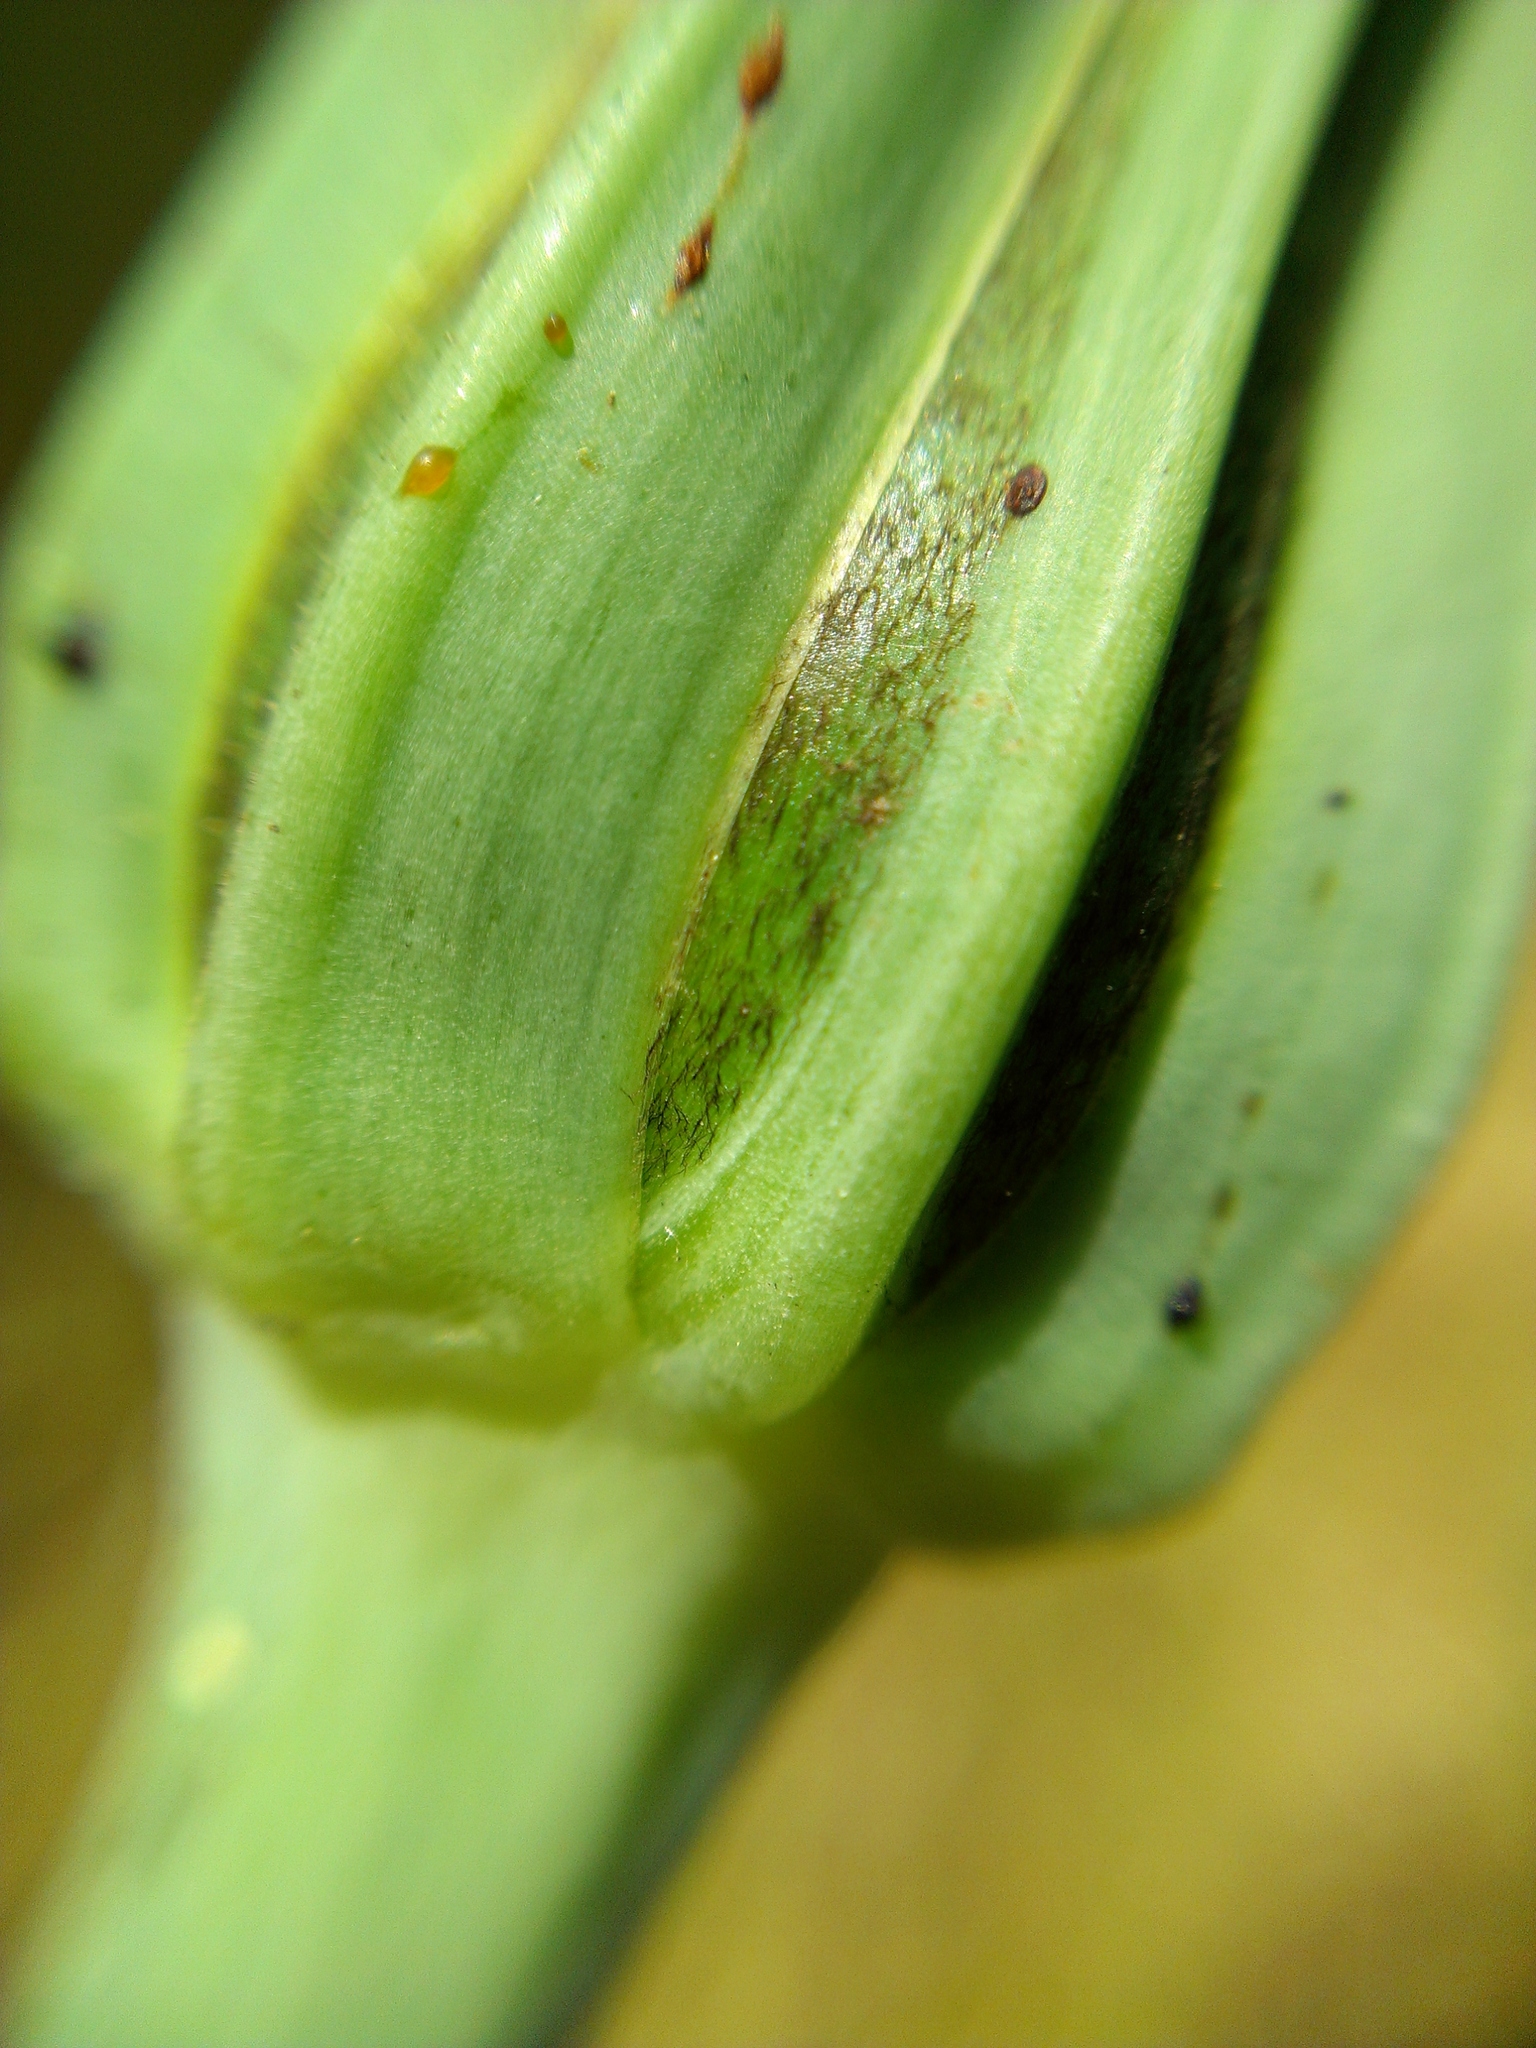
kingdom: Plantae
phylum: Tracheophyta
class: Magnoliopsida
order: Asterales
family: Asteraceae
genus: Tragopogon
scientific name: Tragopogon porrifolius
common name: Salsify
